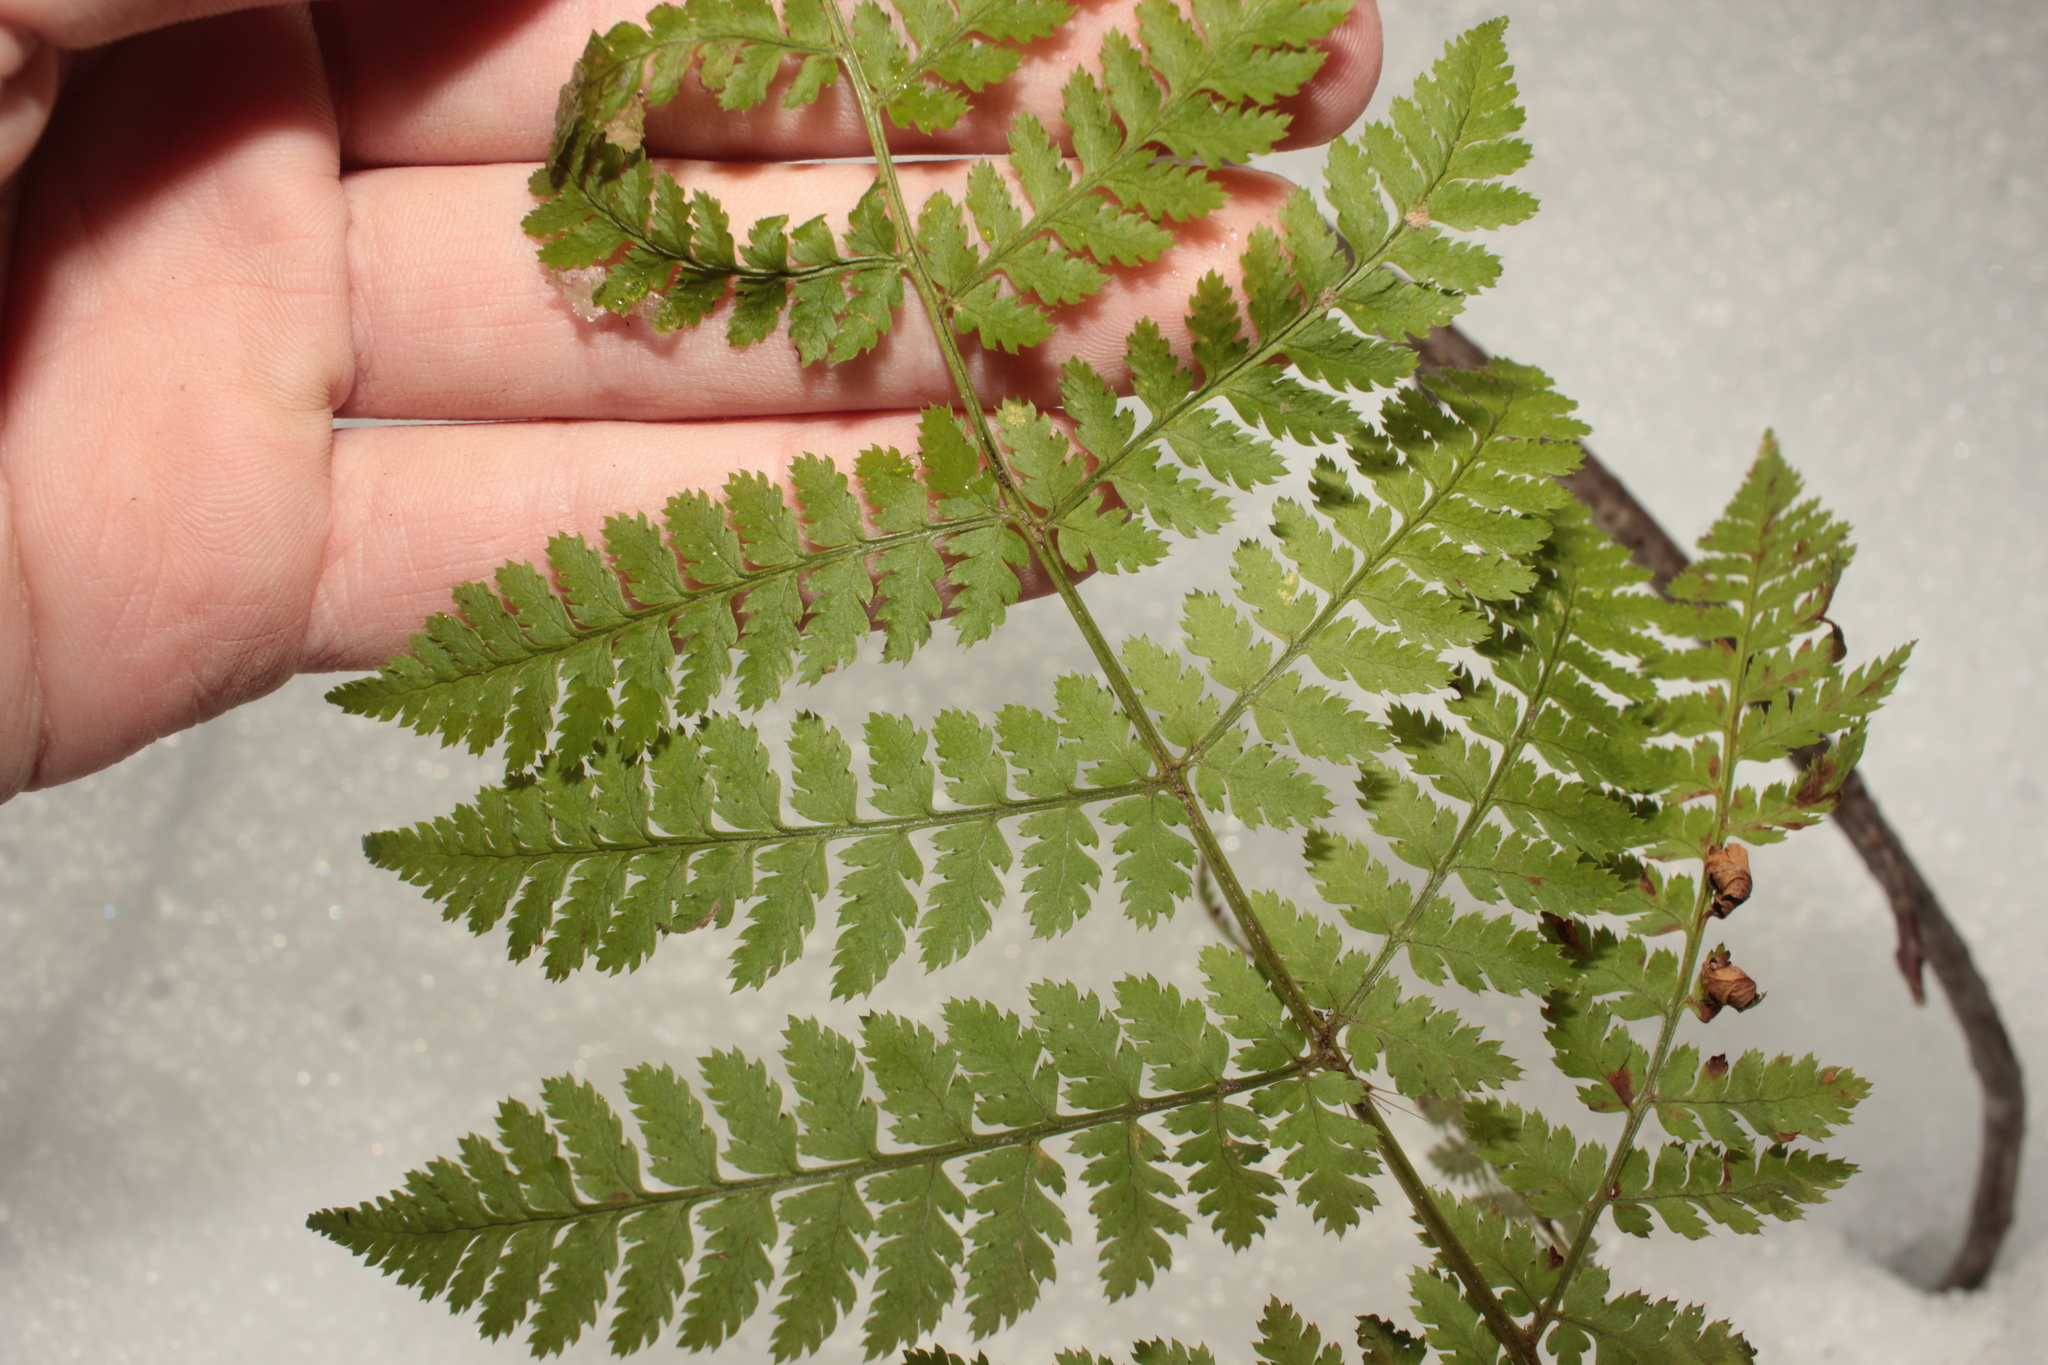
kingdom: Plantae
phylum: Tracheophyta
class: Polypodiopsida
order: Polypodiales
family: Dryopteridaceae
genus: Dryopteris
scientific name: Dryopteris intermedia
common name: Evergreen wood fern
